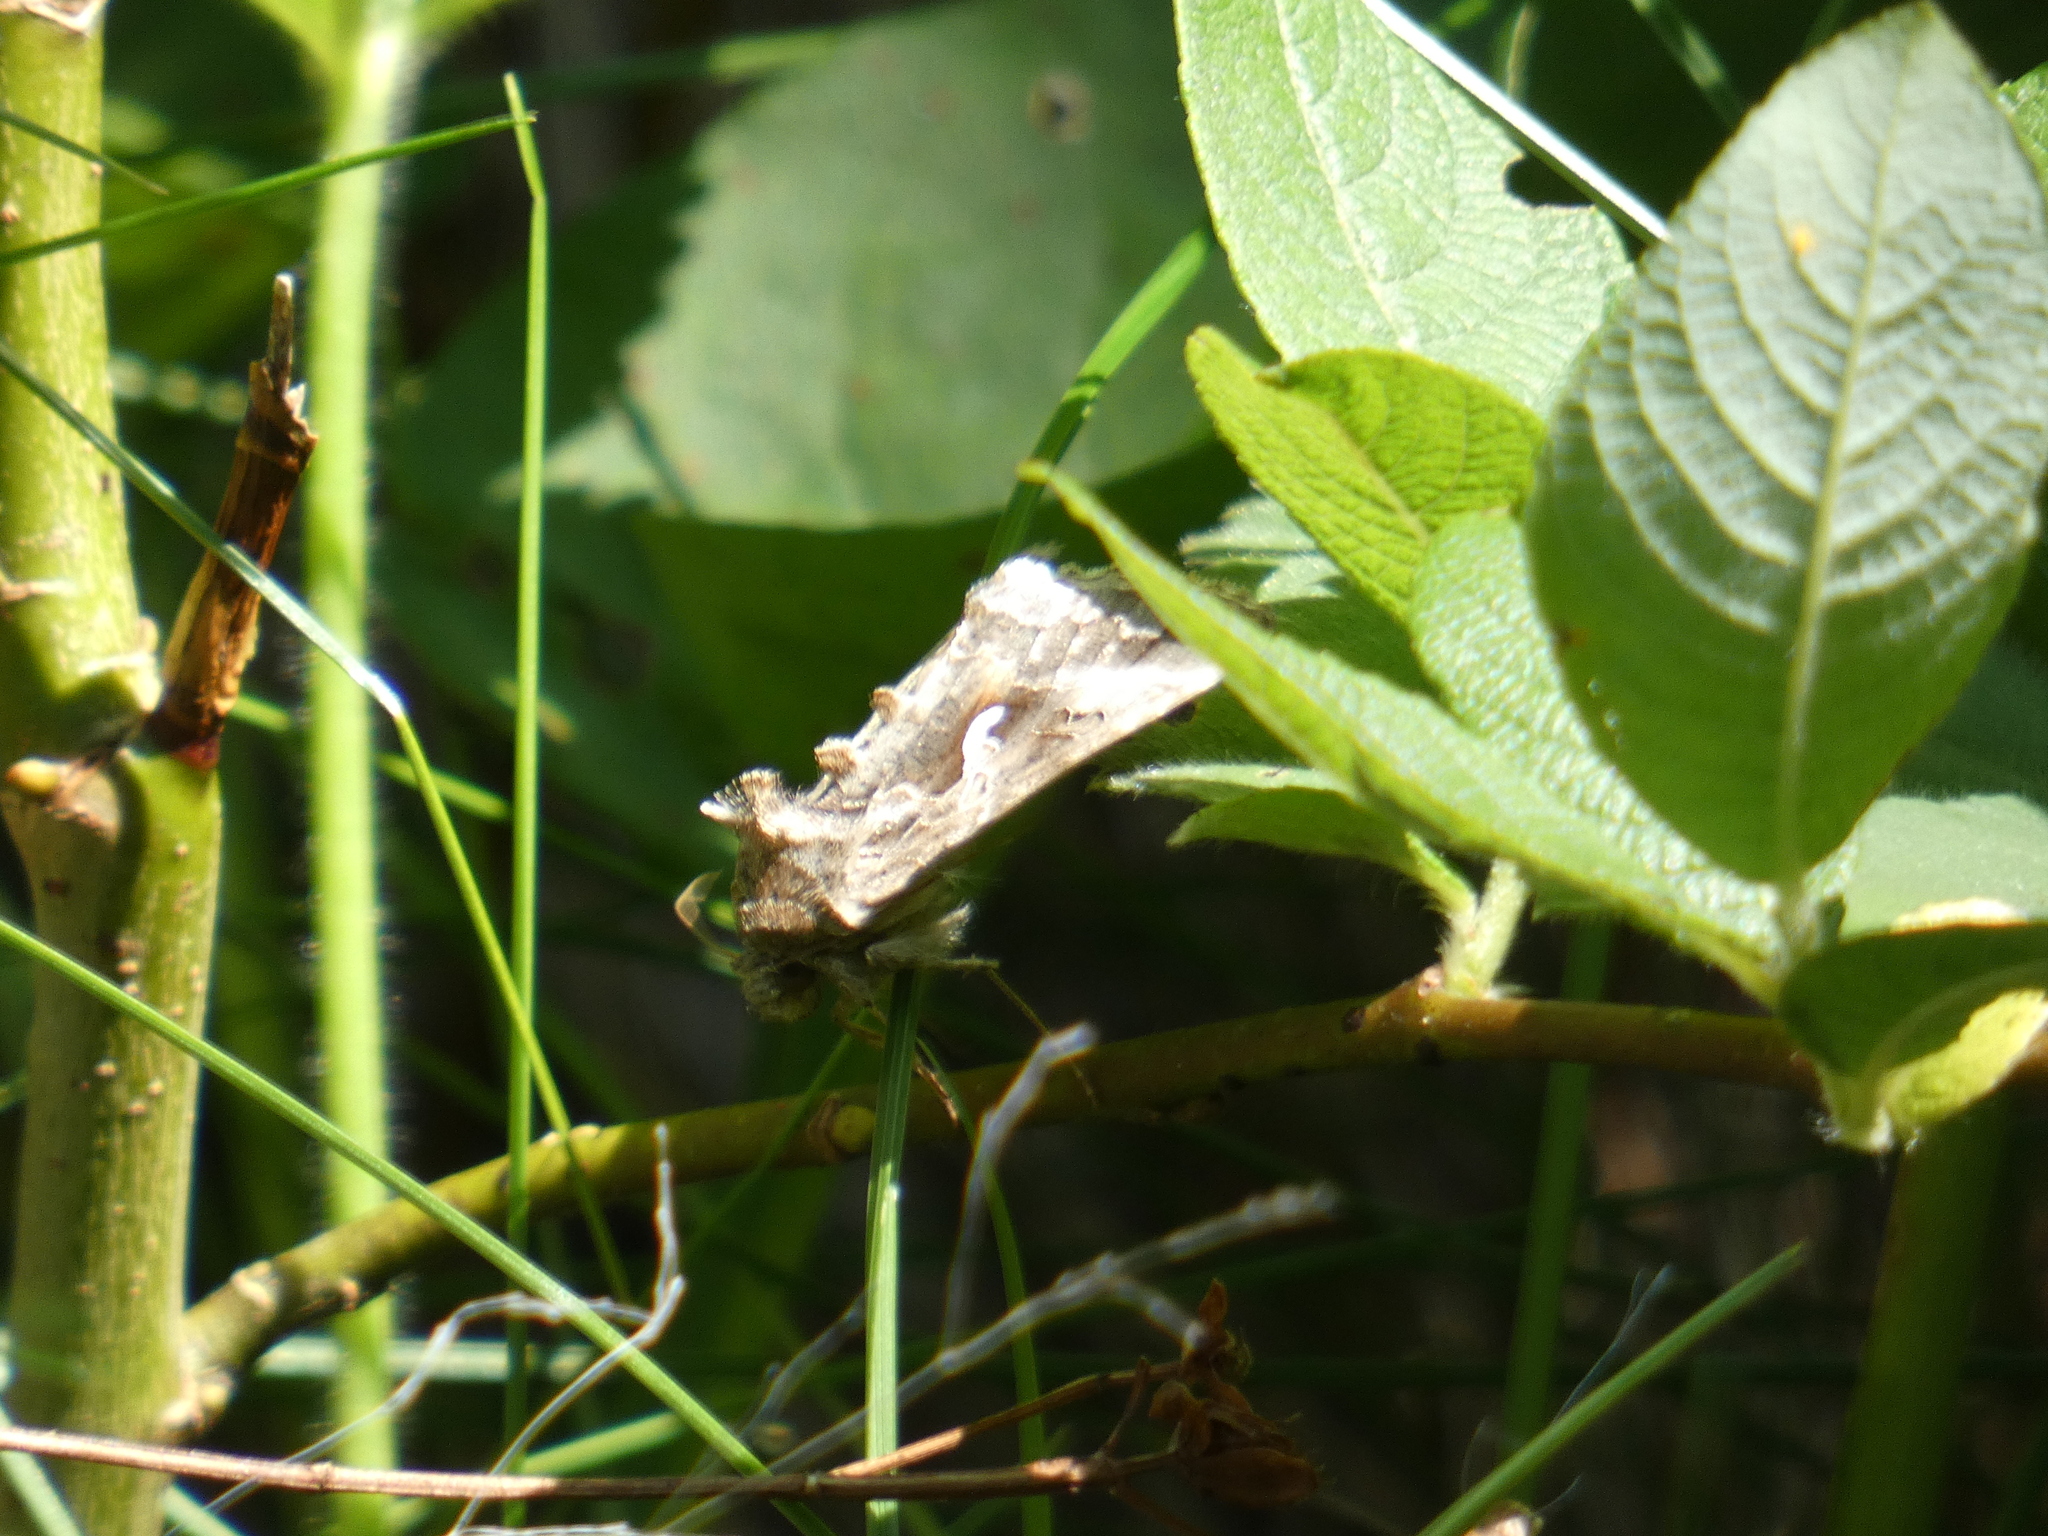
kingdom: Animalia
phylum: Arthropoda
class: Insecta
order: Lepidoptera
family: Noctuidae
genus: Autographa
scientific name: Autographa gamma
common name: Silver y
